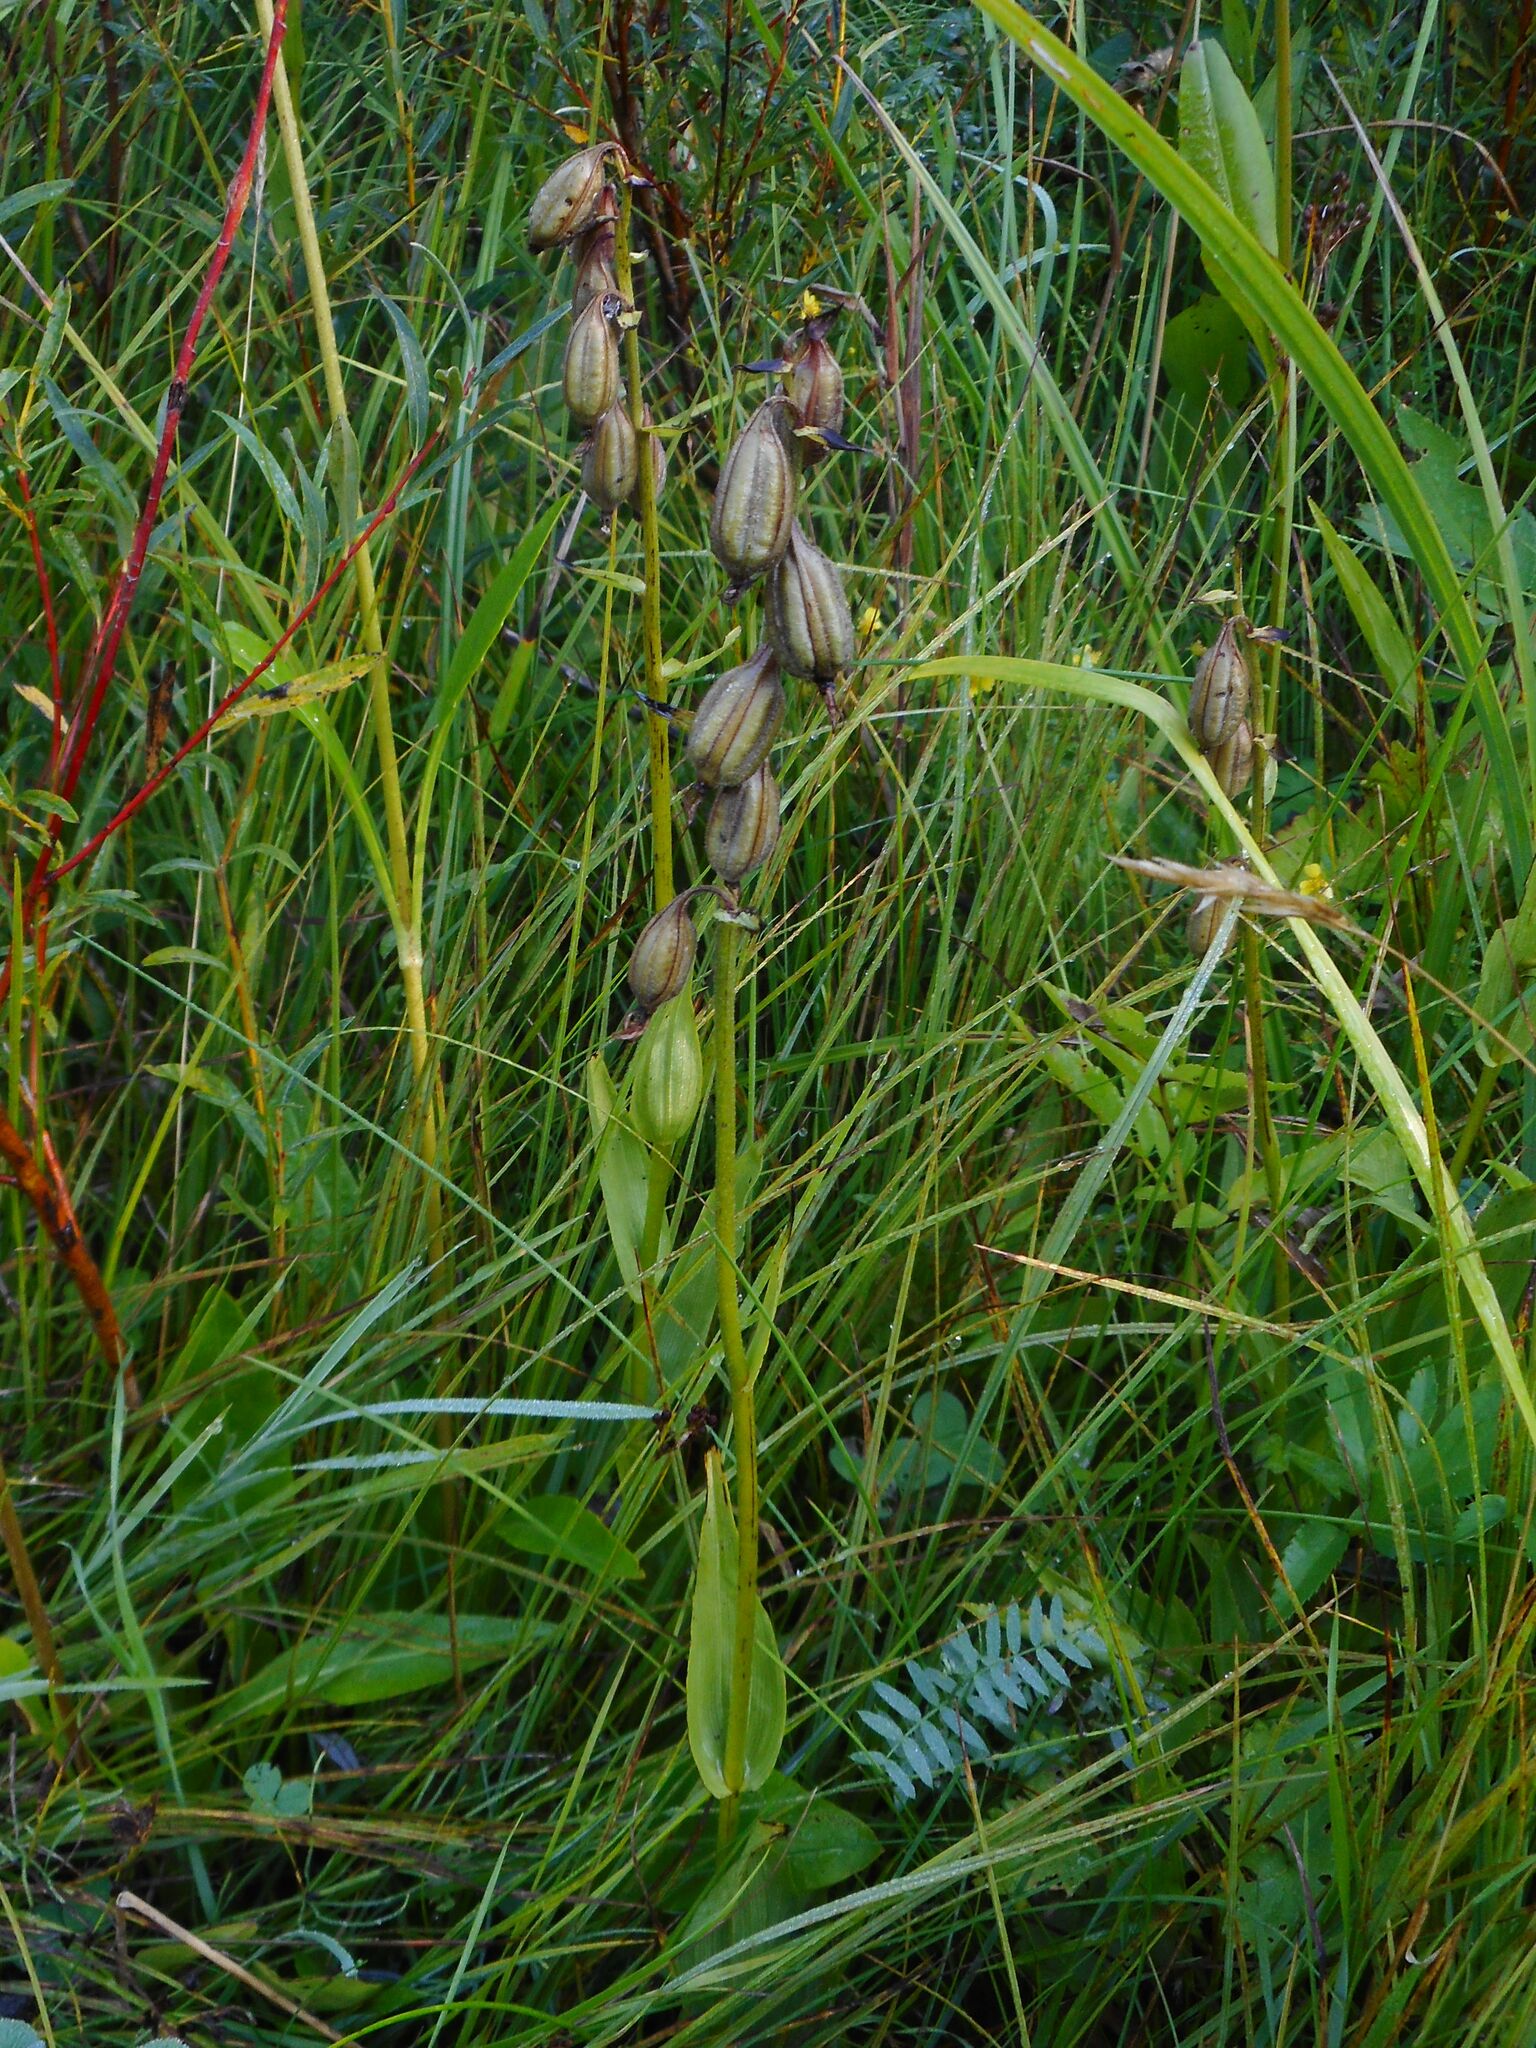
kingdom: Plantae
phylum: Tracheophyta
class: Liliopsida
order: Asparagales
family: Orchidaceae
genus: Epipactis
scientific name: Epipactis palustris
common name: Marsh helleborine
